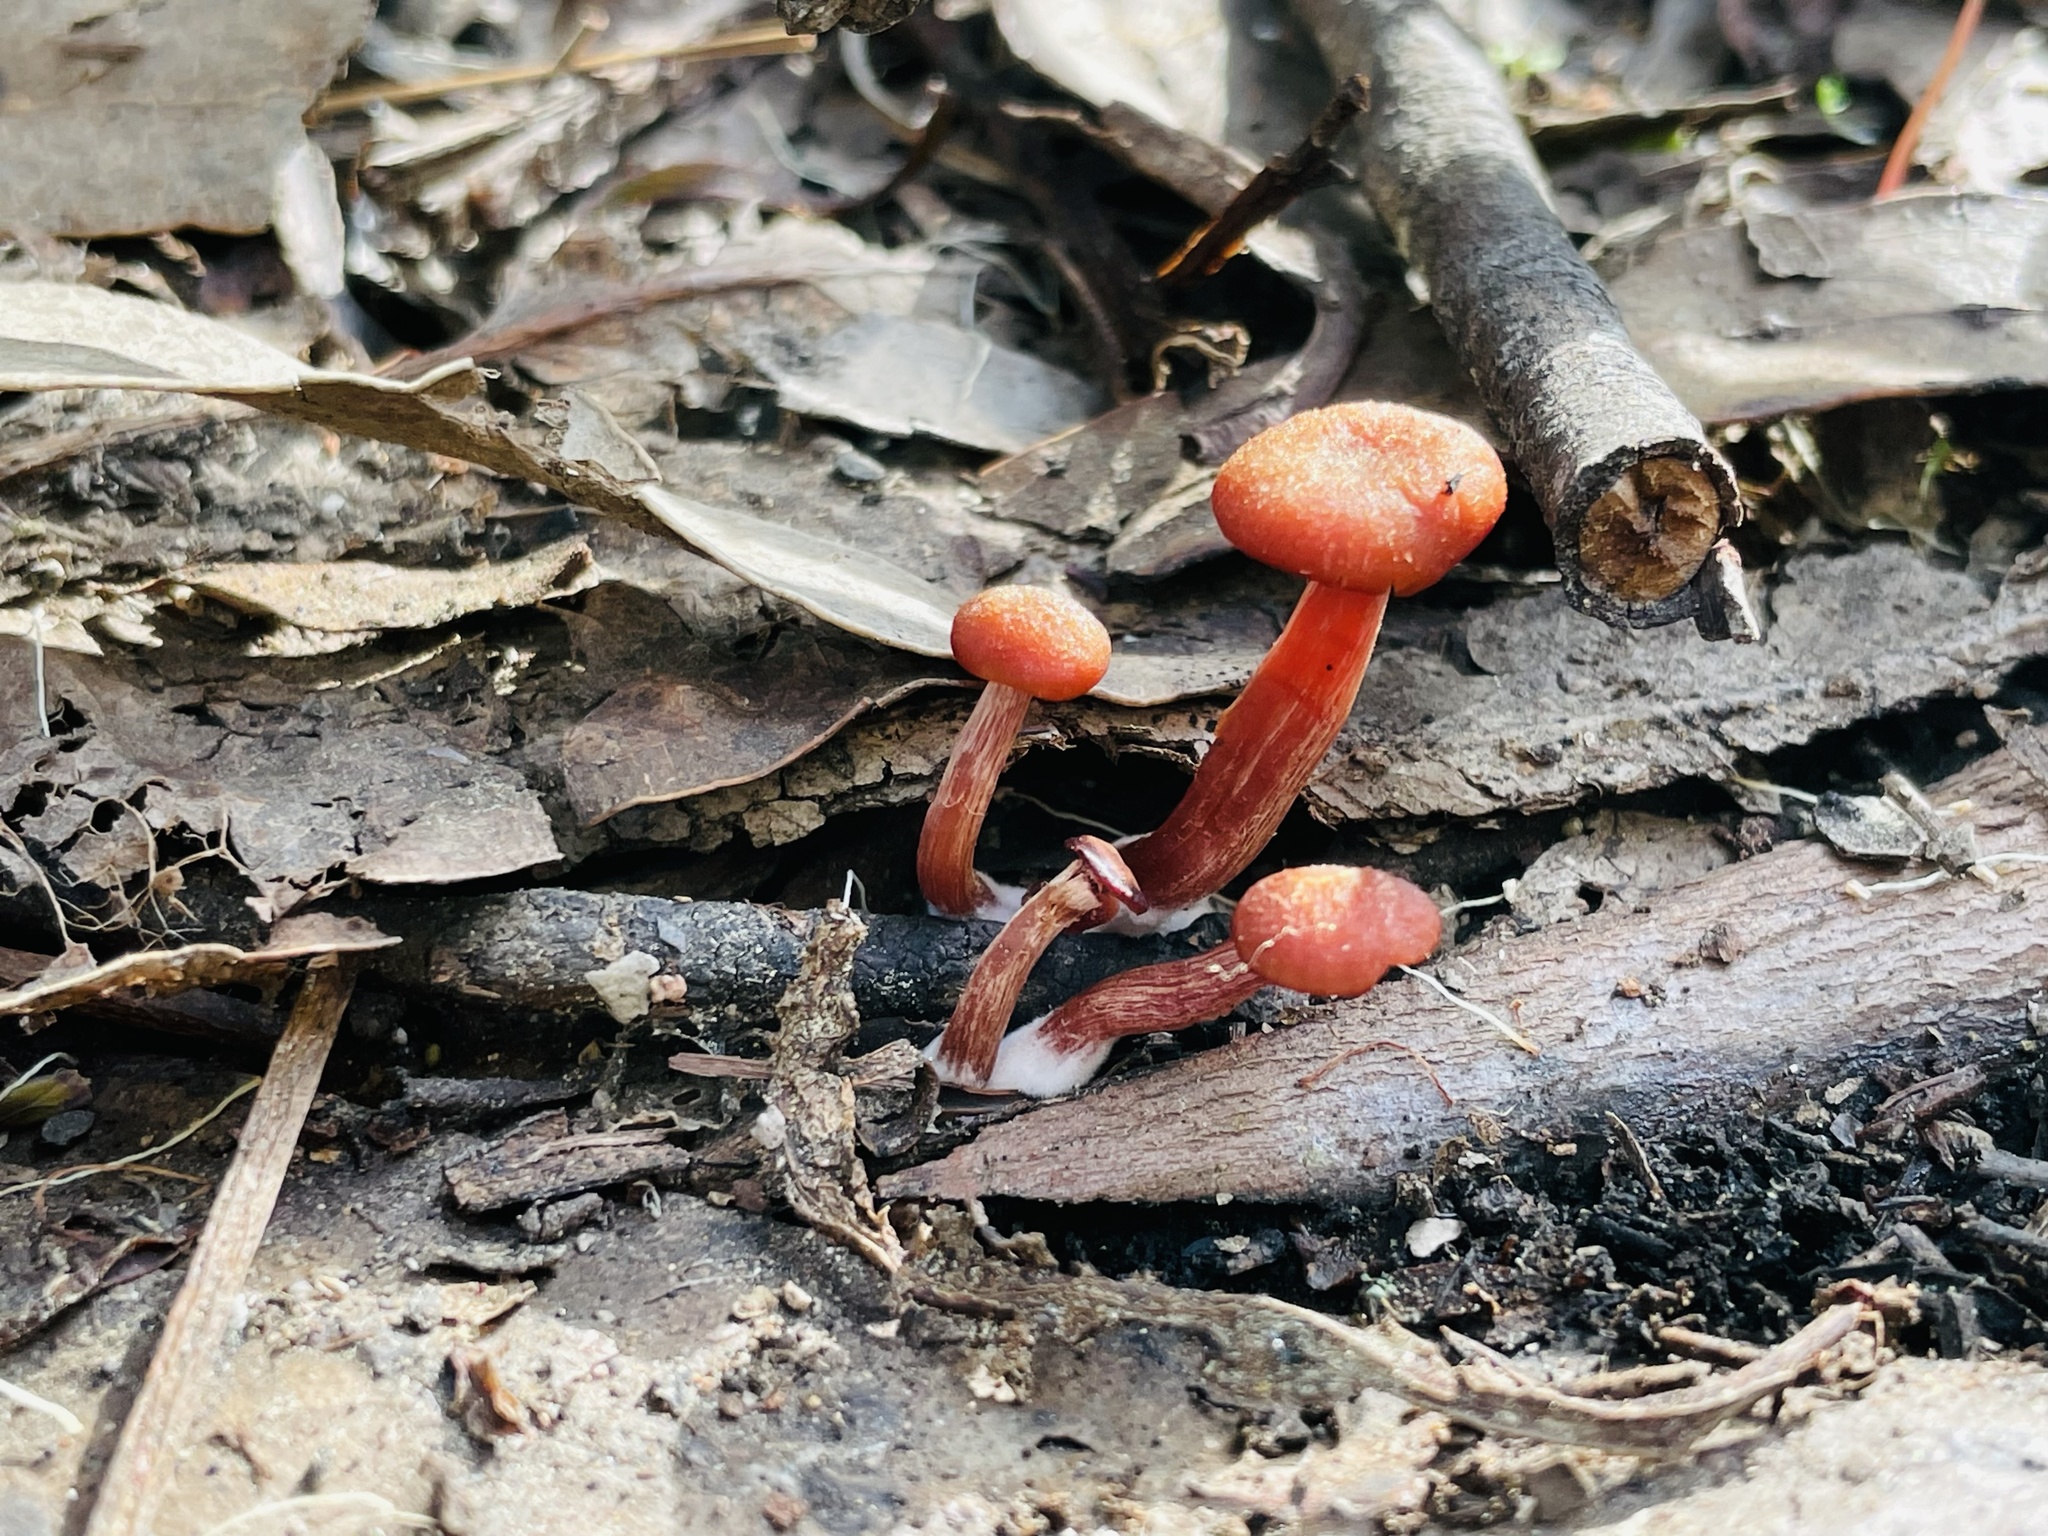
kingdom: Fungi
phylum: Basidiomycota
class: Agaricomycetes
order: Agaricales
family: Hydnangiaceae
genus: Laccaria
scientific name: Laccaria laccata
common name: Deceiver
